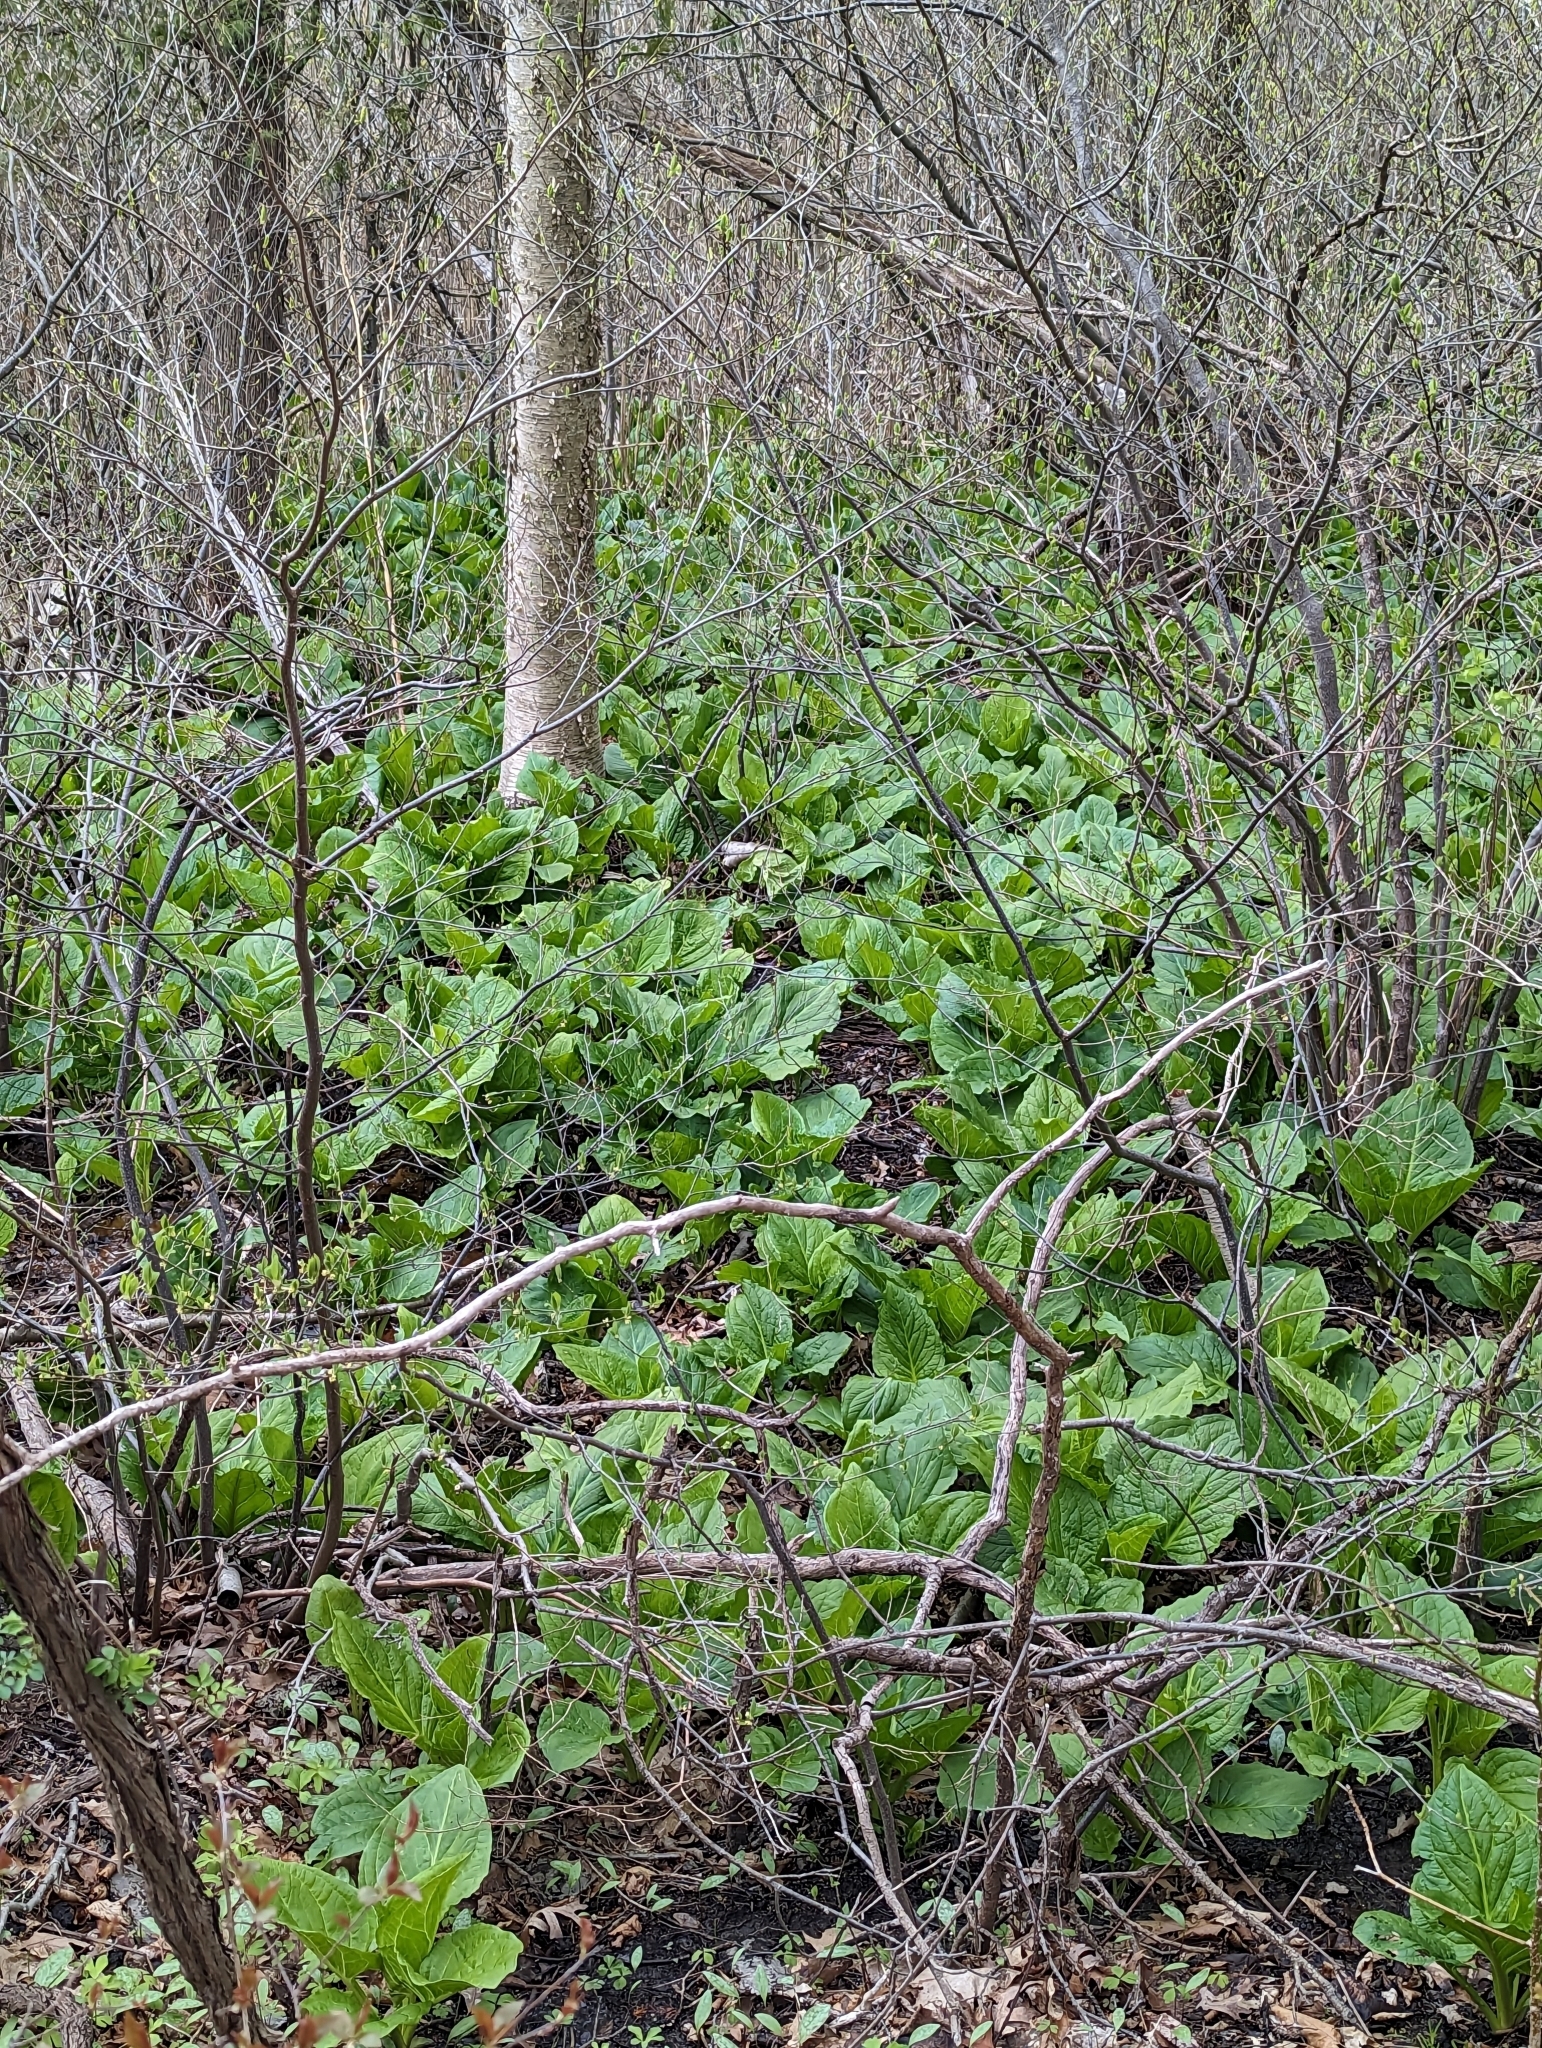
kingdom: Plantae
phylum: Tracheophyta
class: Liliopsida
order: Alismatales
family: Araceae
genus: Symplocarpus
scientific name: Symplocarpus foetidus
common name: Eastern skunk cabbage
